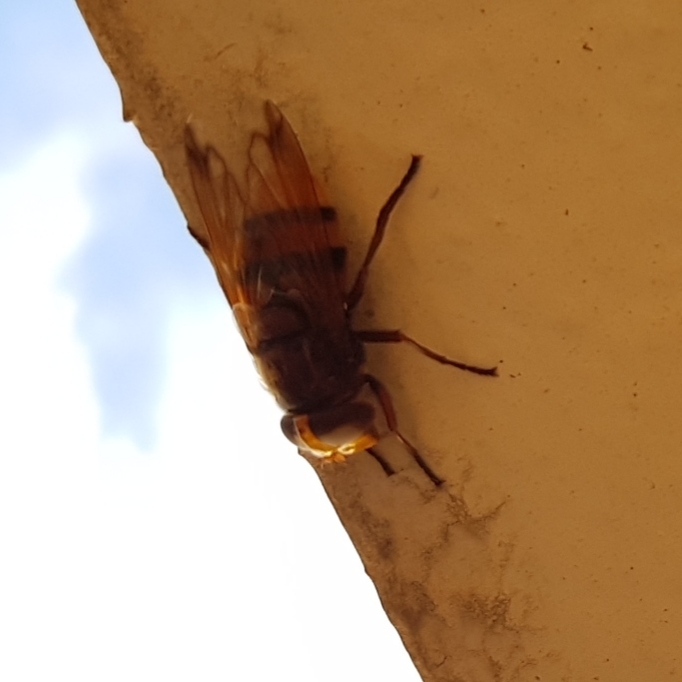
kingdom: Animalia
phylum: Arthropoda
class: Insecta
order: Diptera
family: Syrphidae
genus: Volucella
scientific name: Volucella zonaria
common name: Hornet hoverfly
